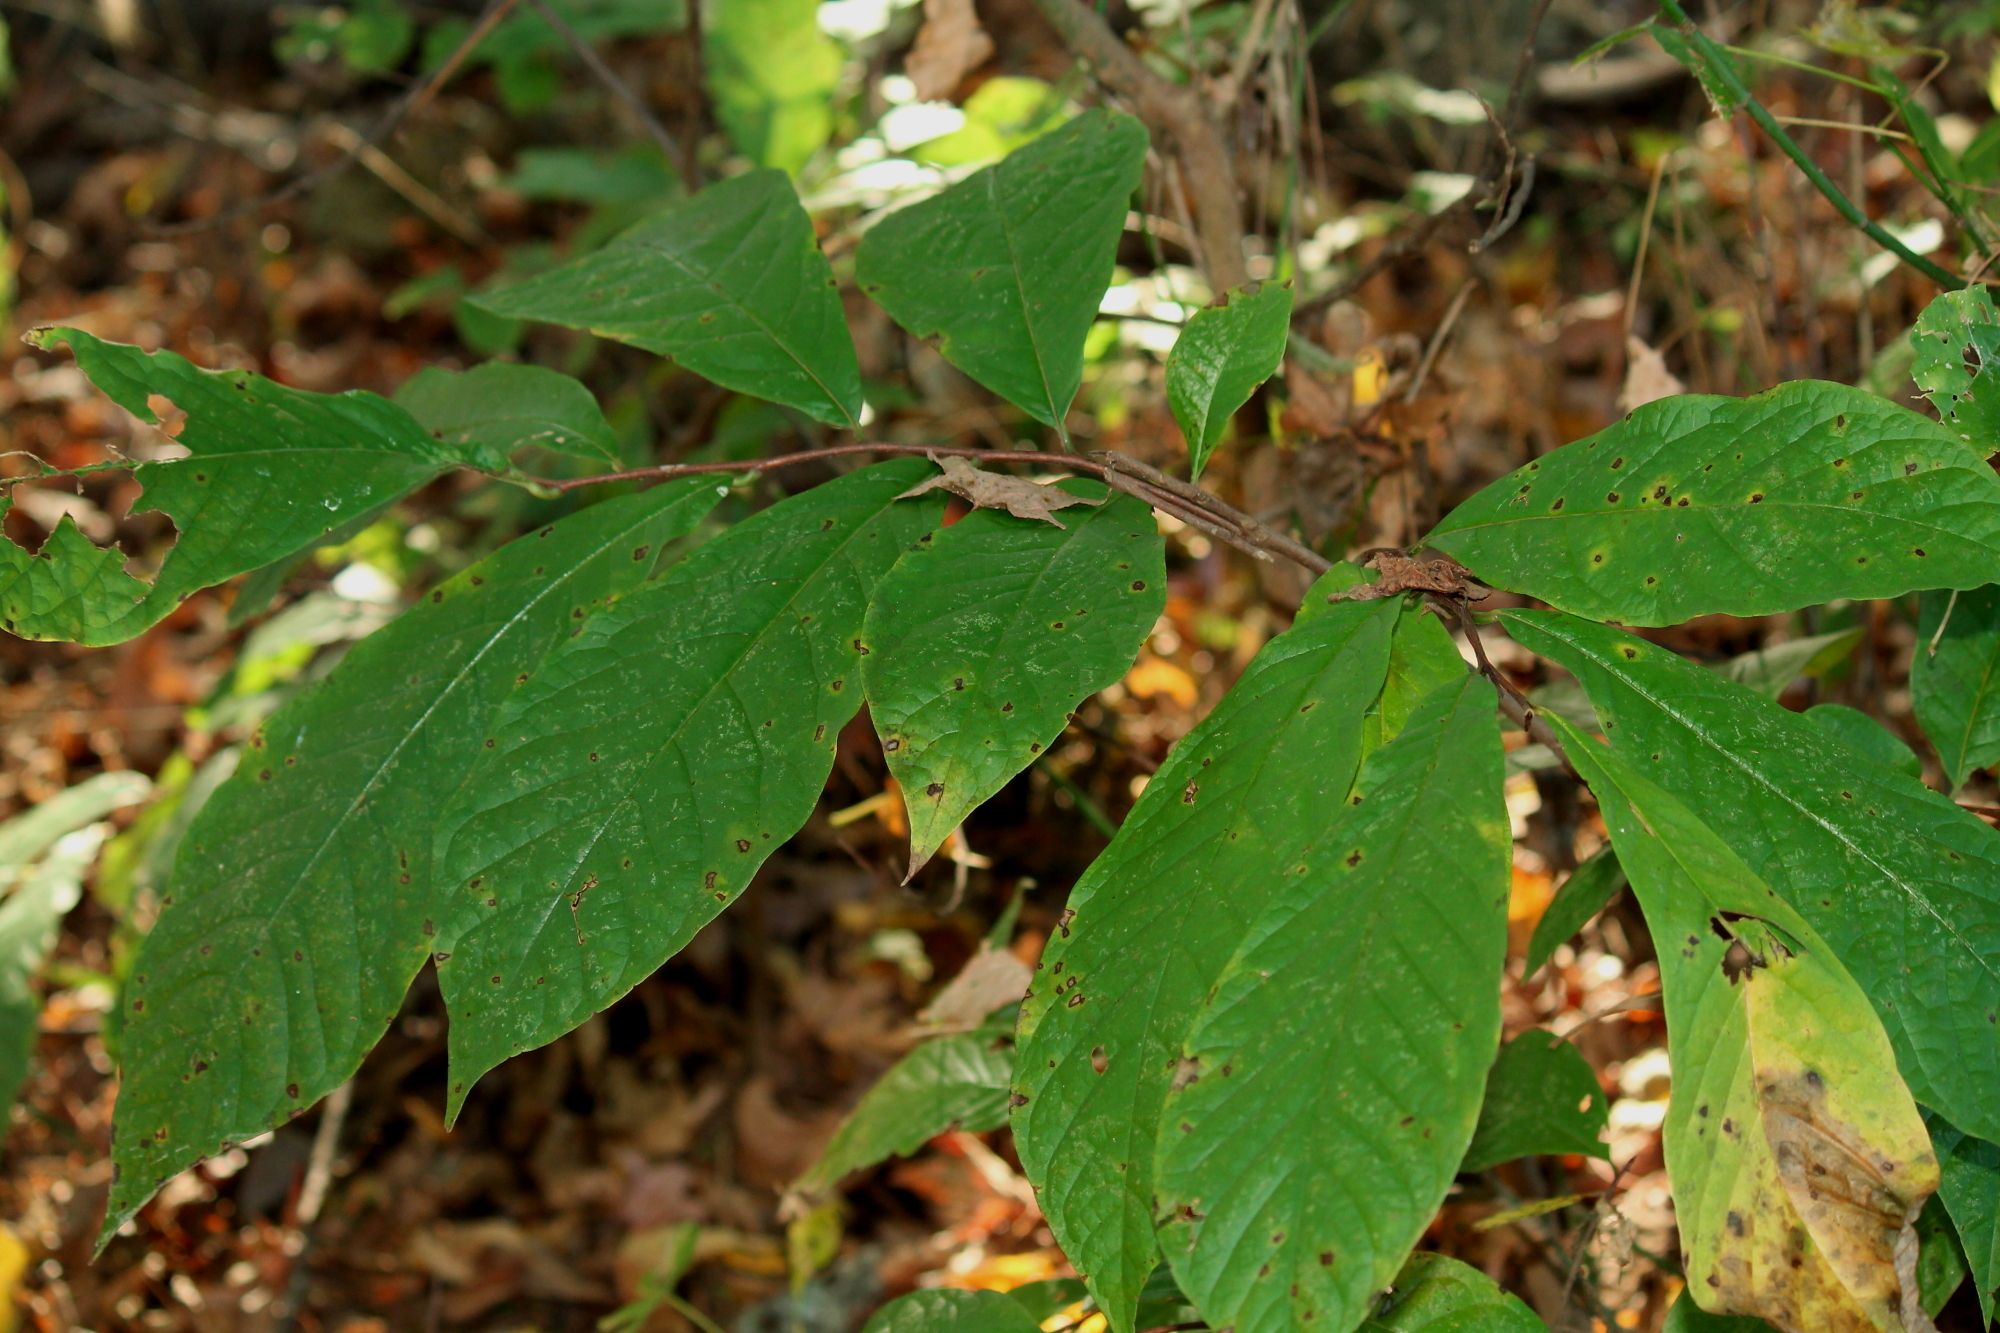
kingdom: Plantae
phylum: Tracheophyta
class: Magnoliopsida
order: Magnoliales
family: Annonaceae
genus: Asimina
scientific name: Asimina triloba
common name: Dog-banana
